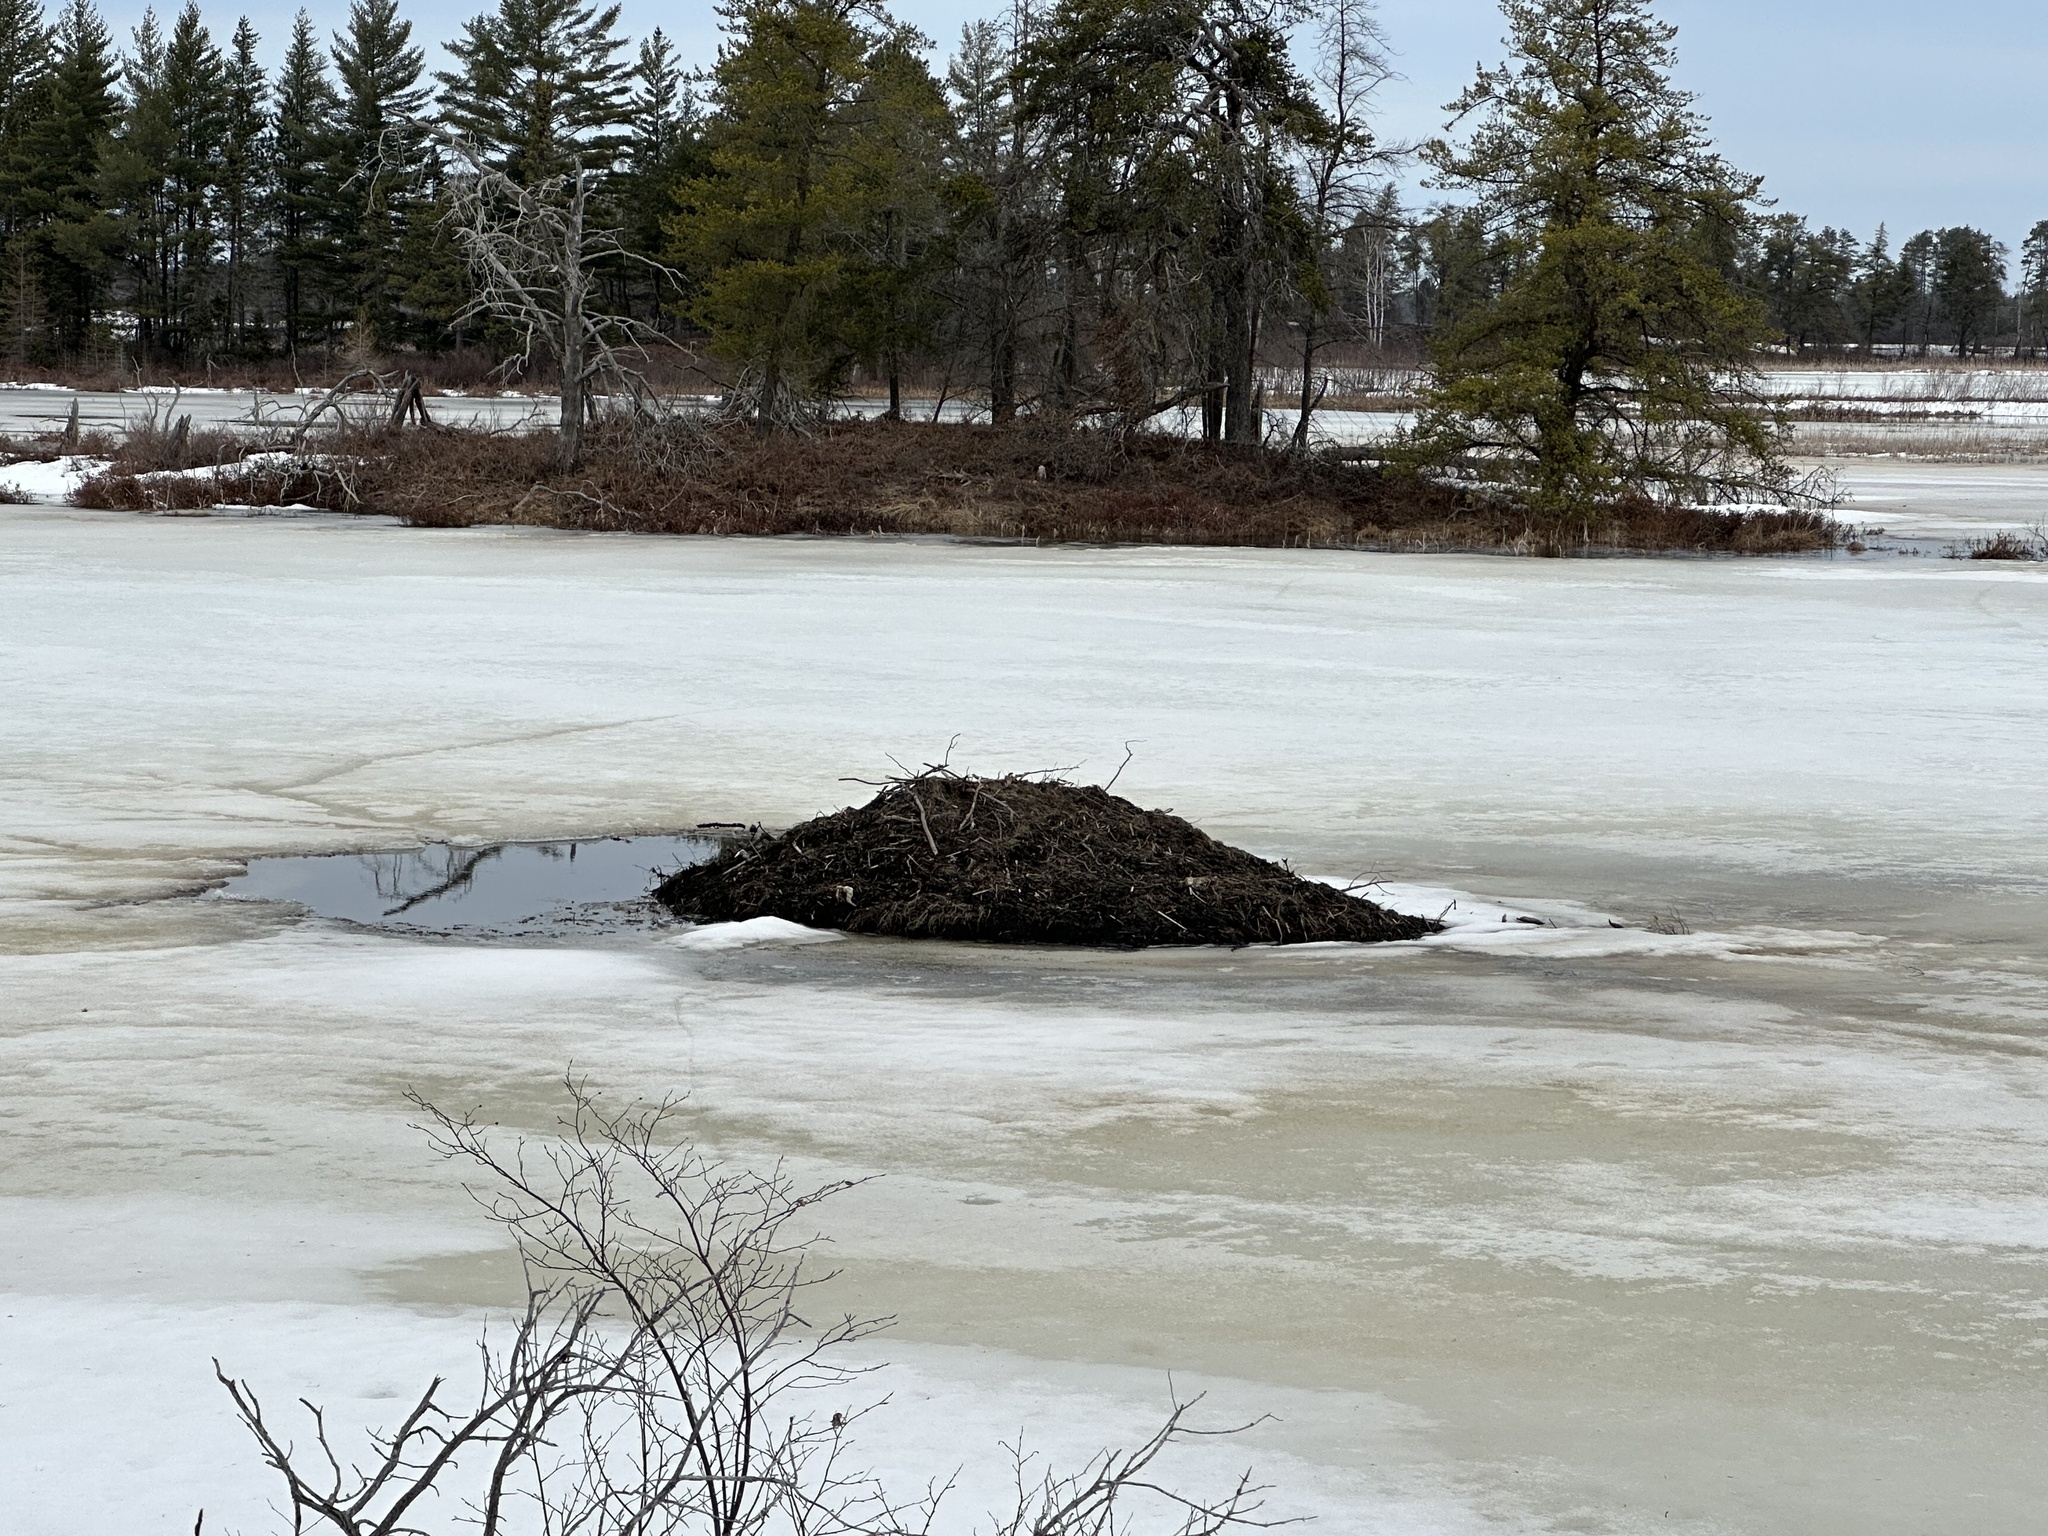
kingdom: Animalia
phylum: Chordata
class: Mammalia
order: Rodentia
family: Castoridae
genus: Castor
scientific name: Castor canadensis
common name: American beaver
